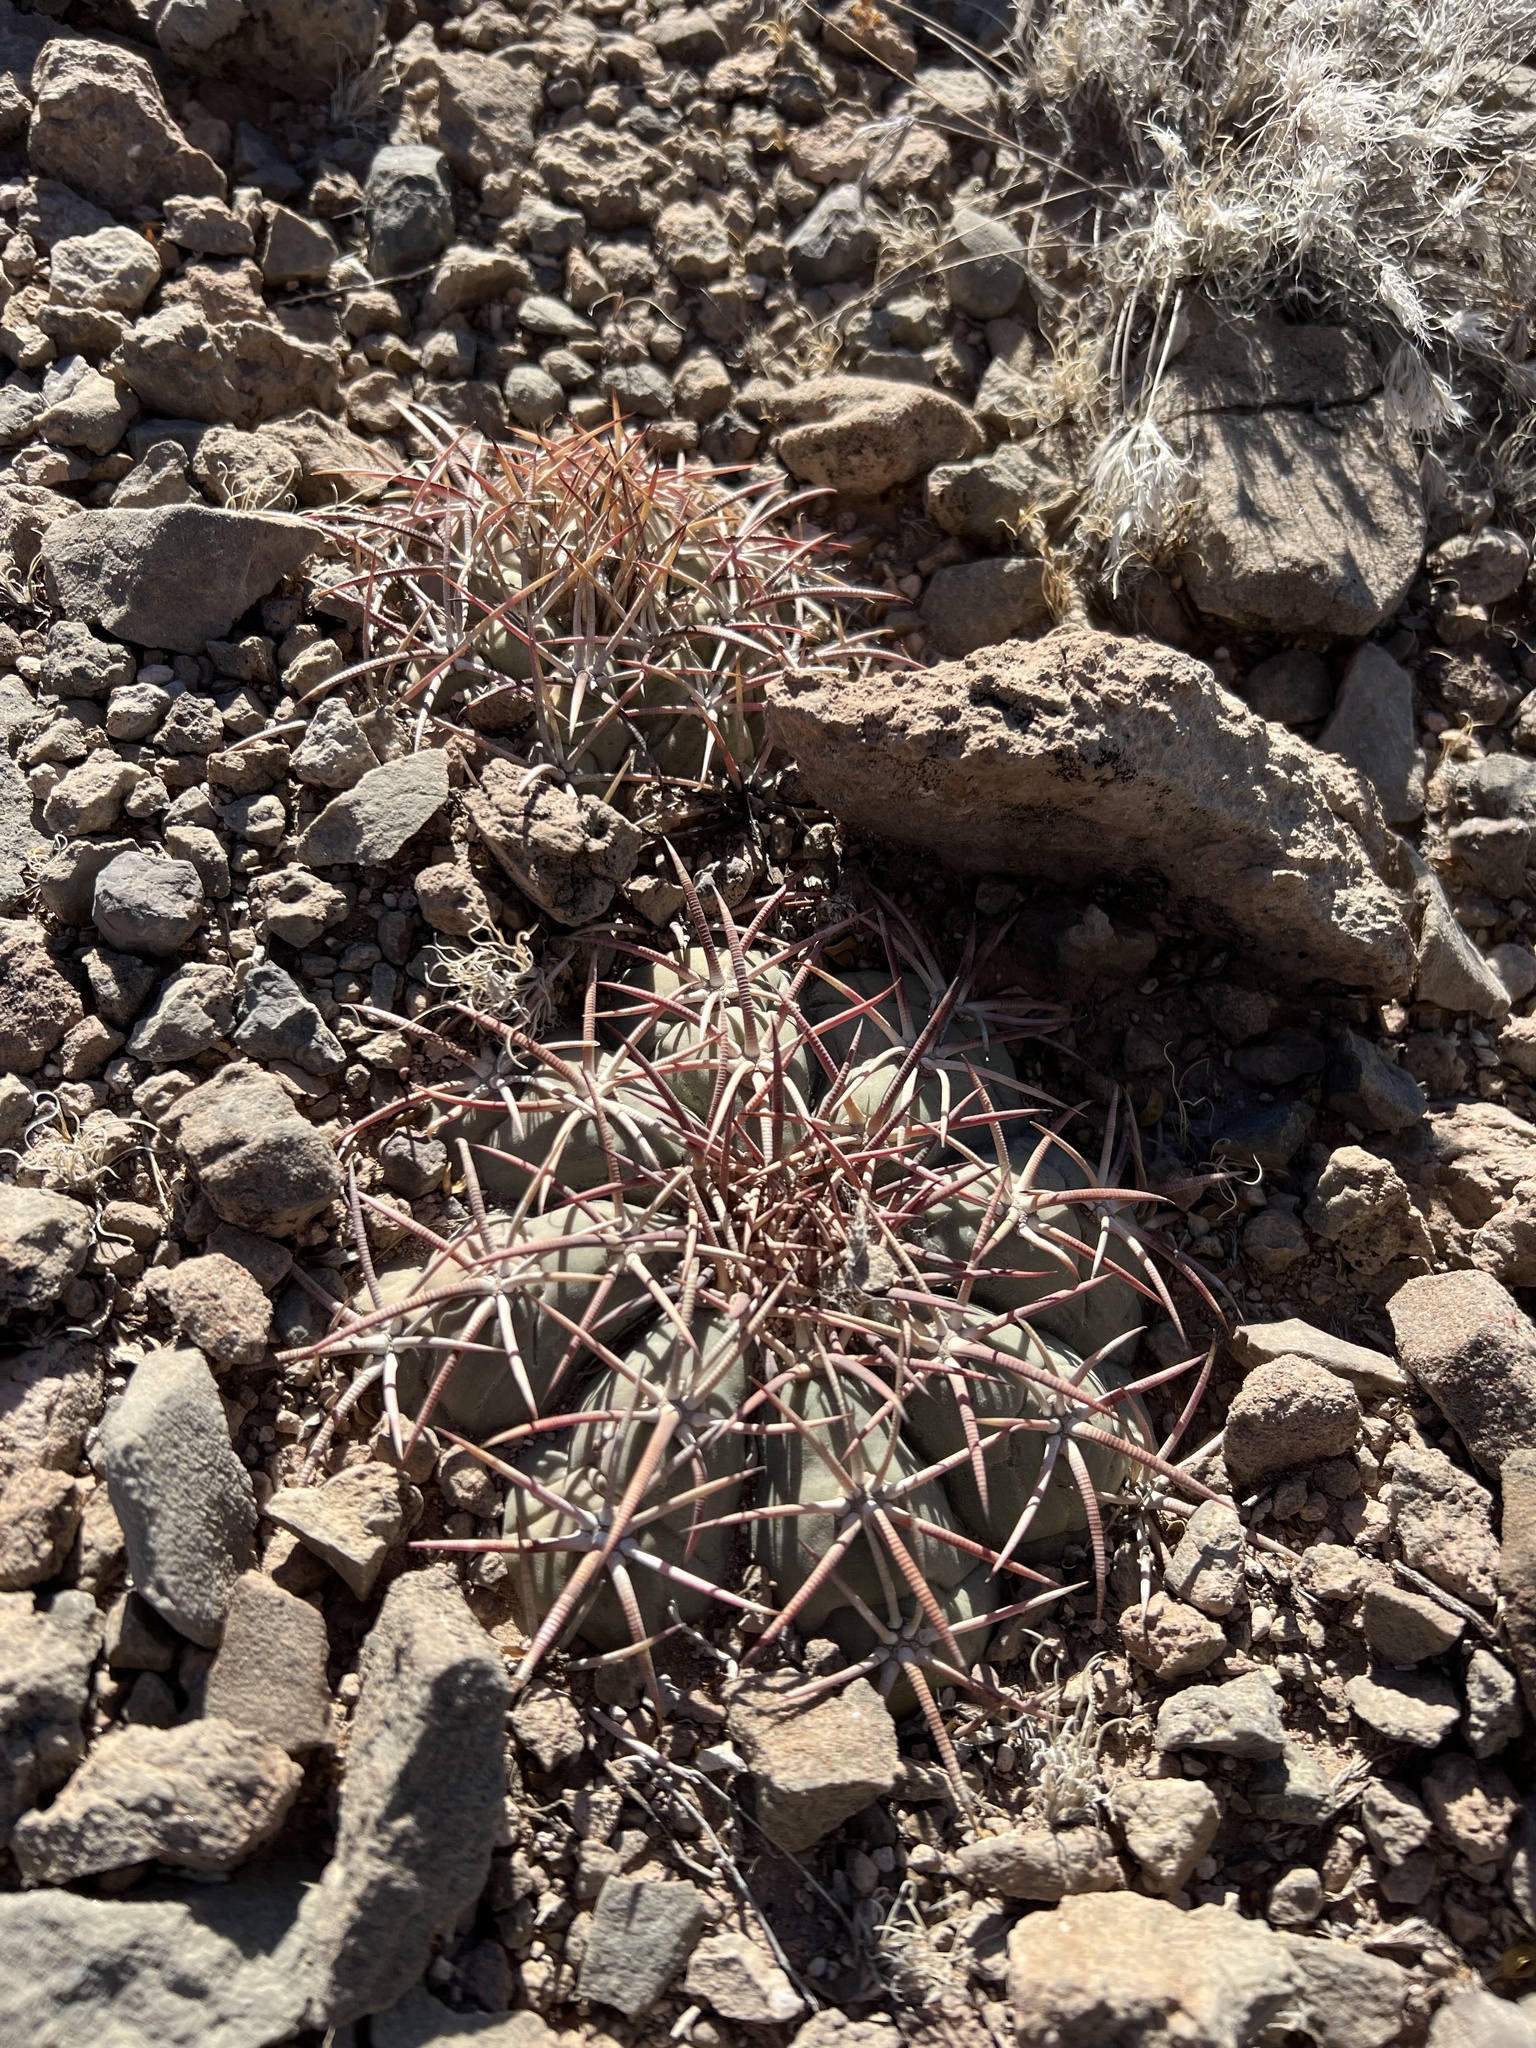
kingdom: Plantae
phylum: Tracheophyta
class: Magnoliopsida
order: Caryophyllales
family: Cactaceae
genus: Echinocactus
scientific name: Echinocactus horizonthalonius
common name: Devilshead
